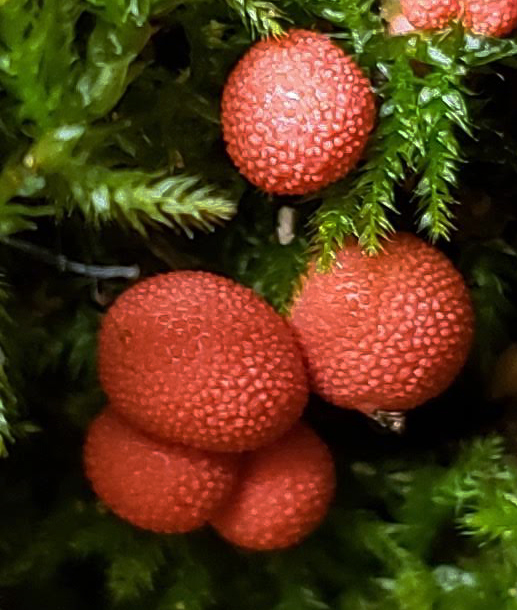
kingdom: Protozoa
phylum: Mycetozoa
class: Myxomycetes
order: Cribrariales
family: Tubiferaceae
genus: Lycogala
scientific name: Lycogala epidendrum
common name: Wolf's milk
